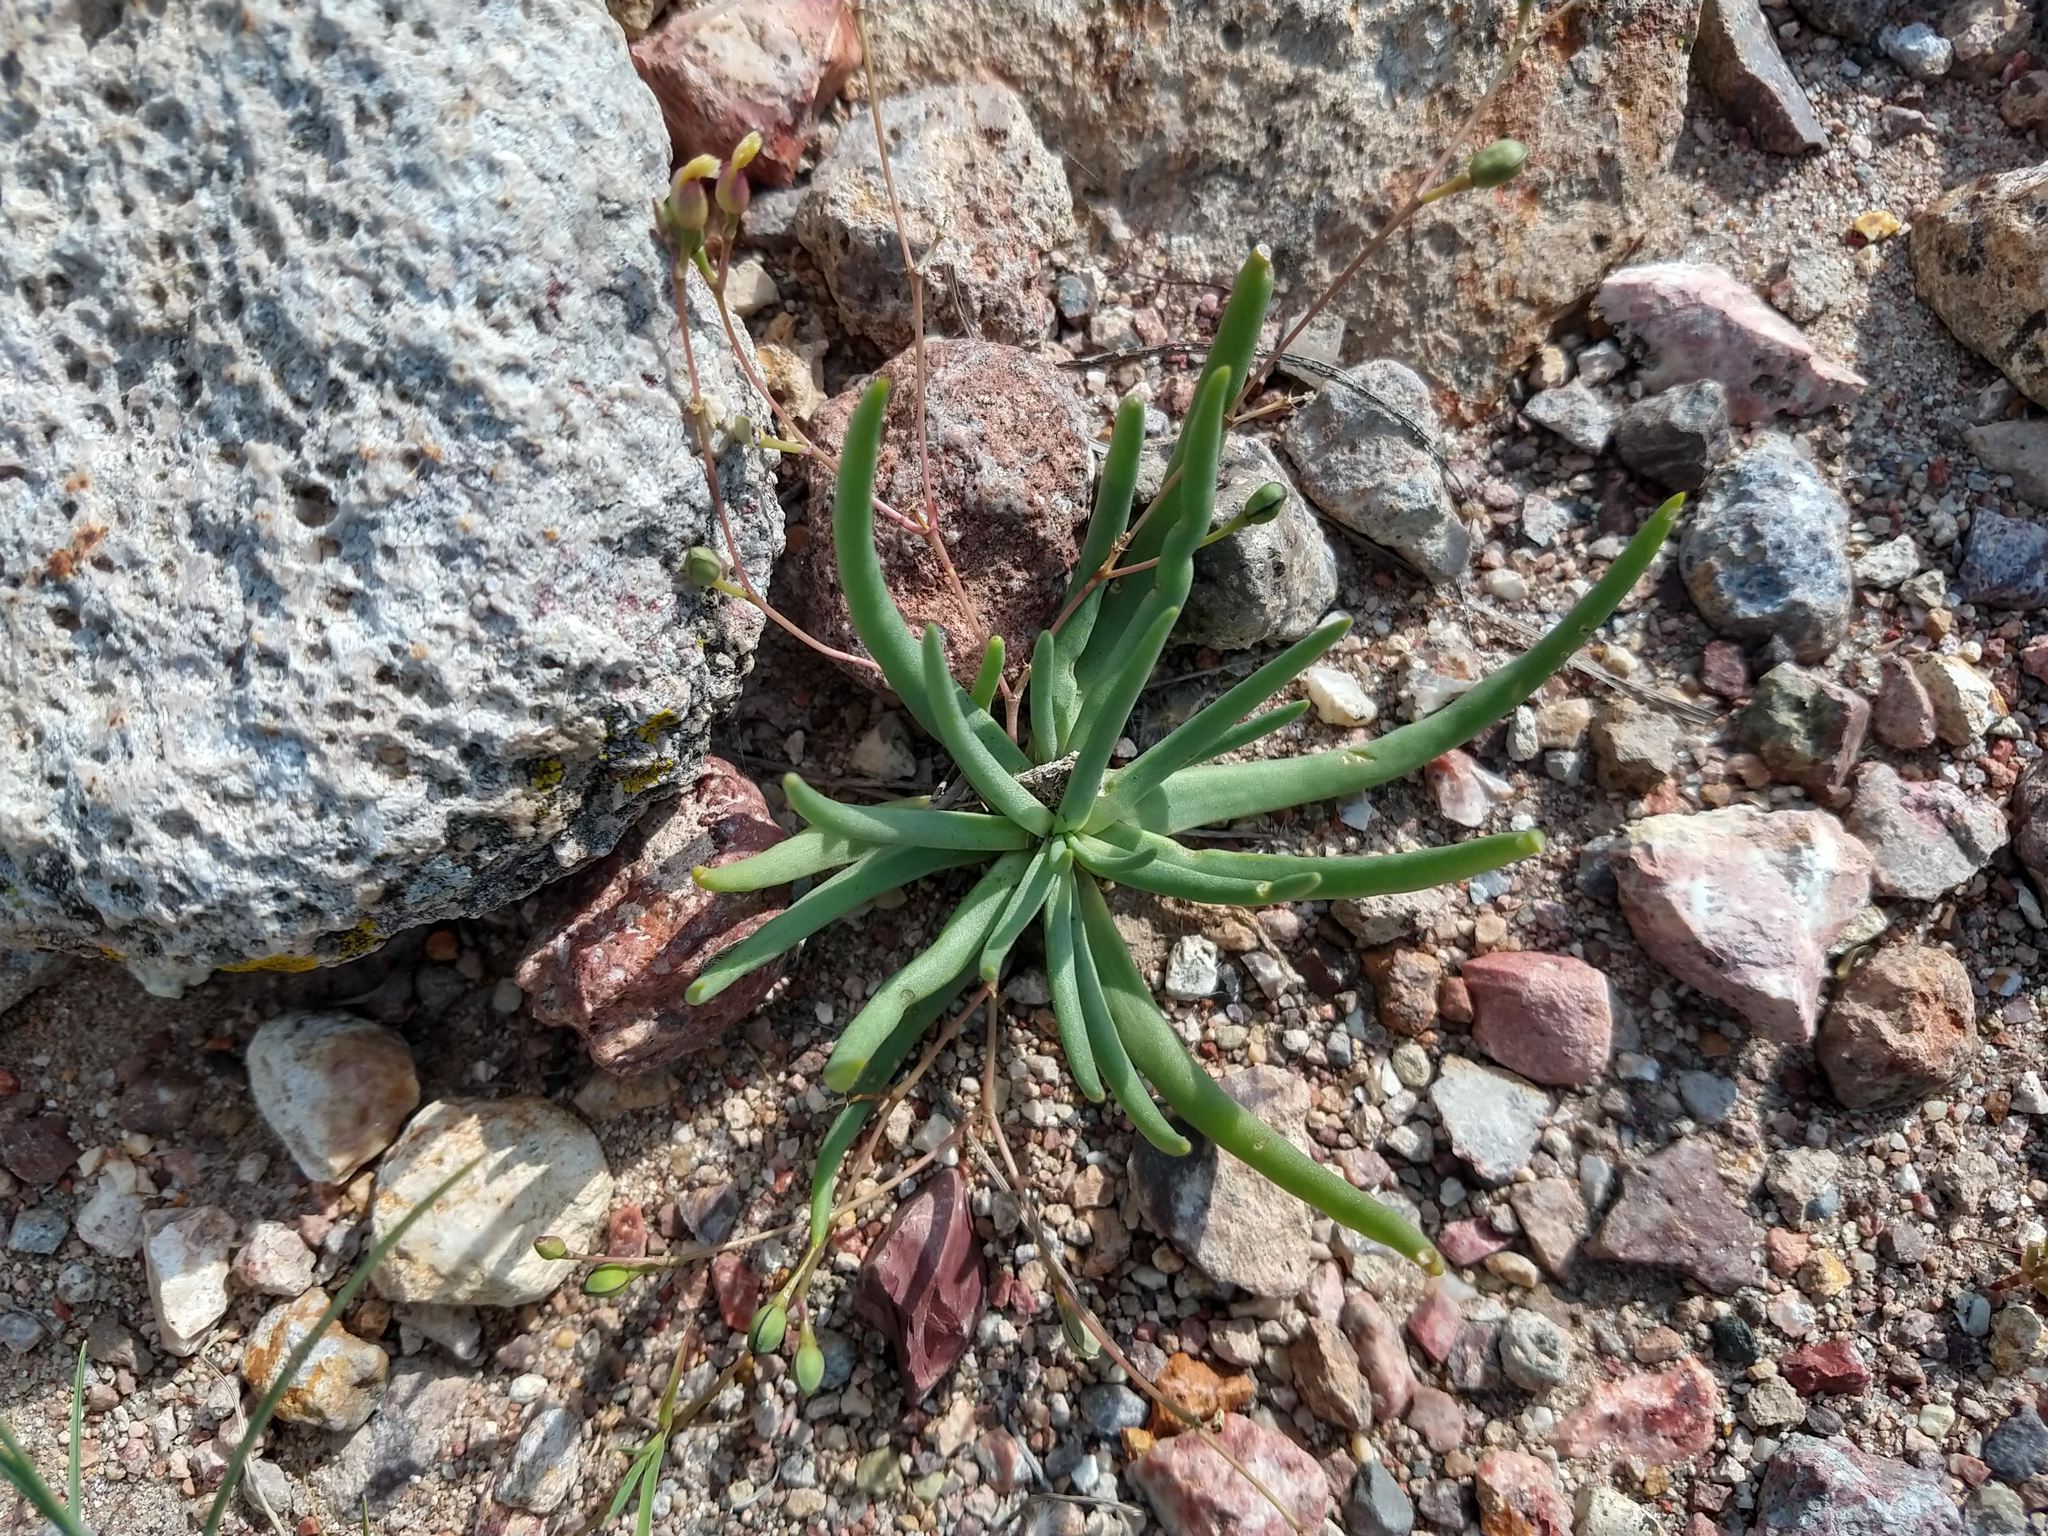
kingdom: Plantae
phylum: Tracheophyta
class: Magnoliopsida
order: Caryophyllales
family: Montiaceae
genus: Phemeranthus
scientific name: Phemeranthus napiformis
